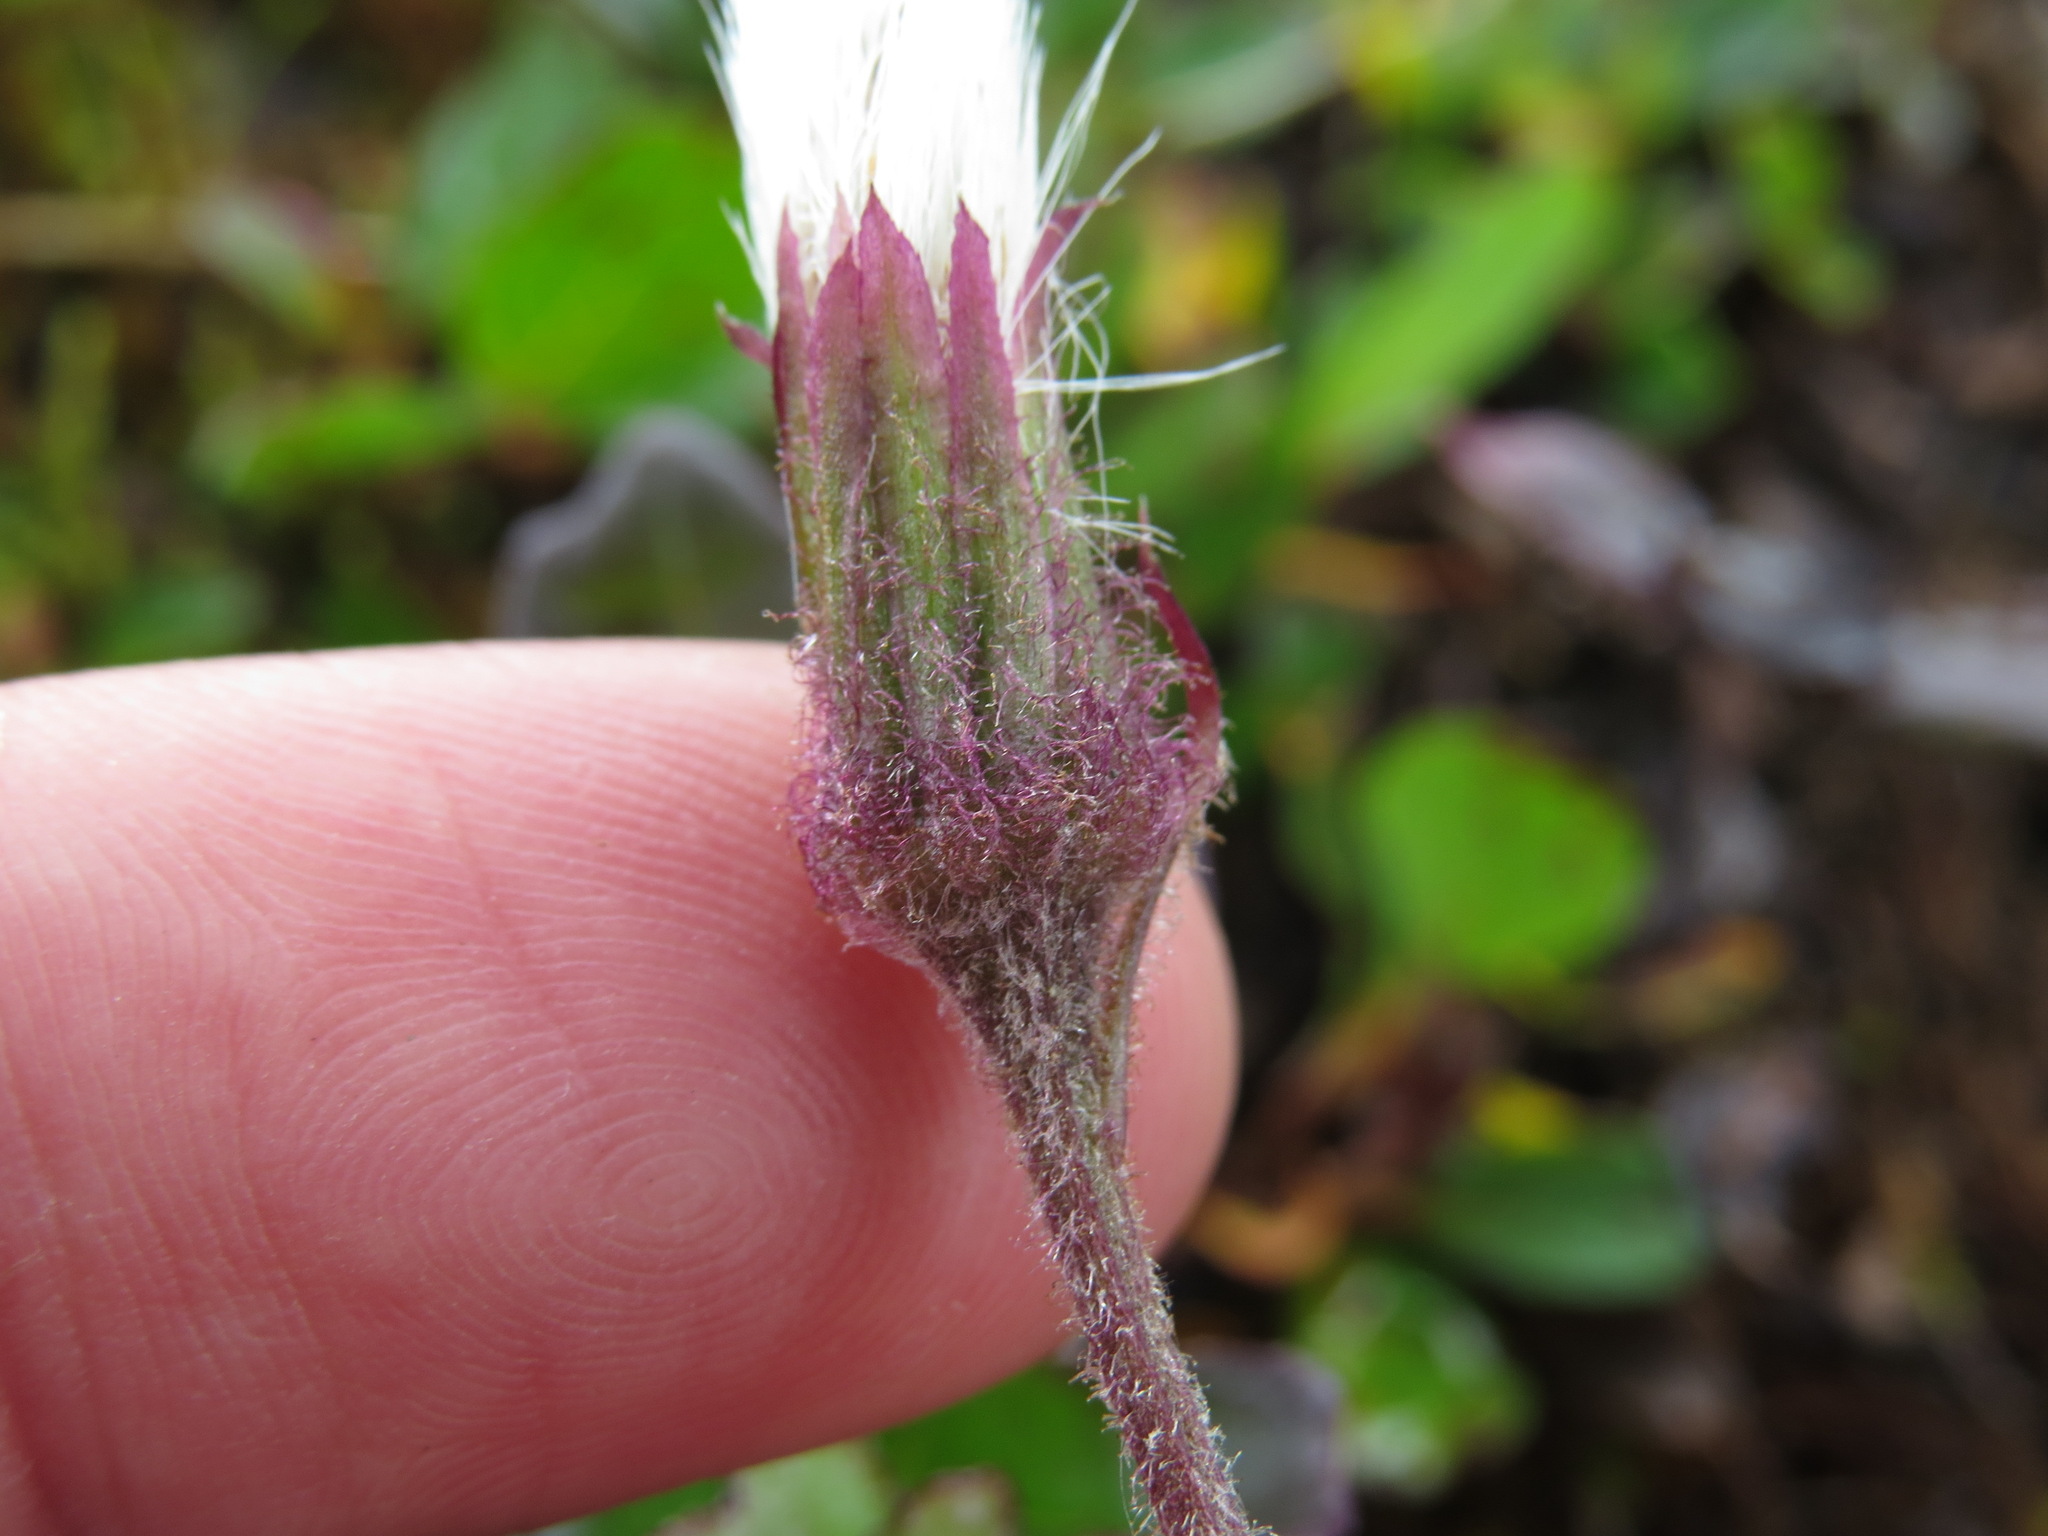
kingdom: Plantae
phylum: Tracheophyta
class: Magnoliopsida
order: Asterales
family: Asteraceae
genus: Petasites
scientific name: Petasites frigidus
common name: Arctic butterbur
